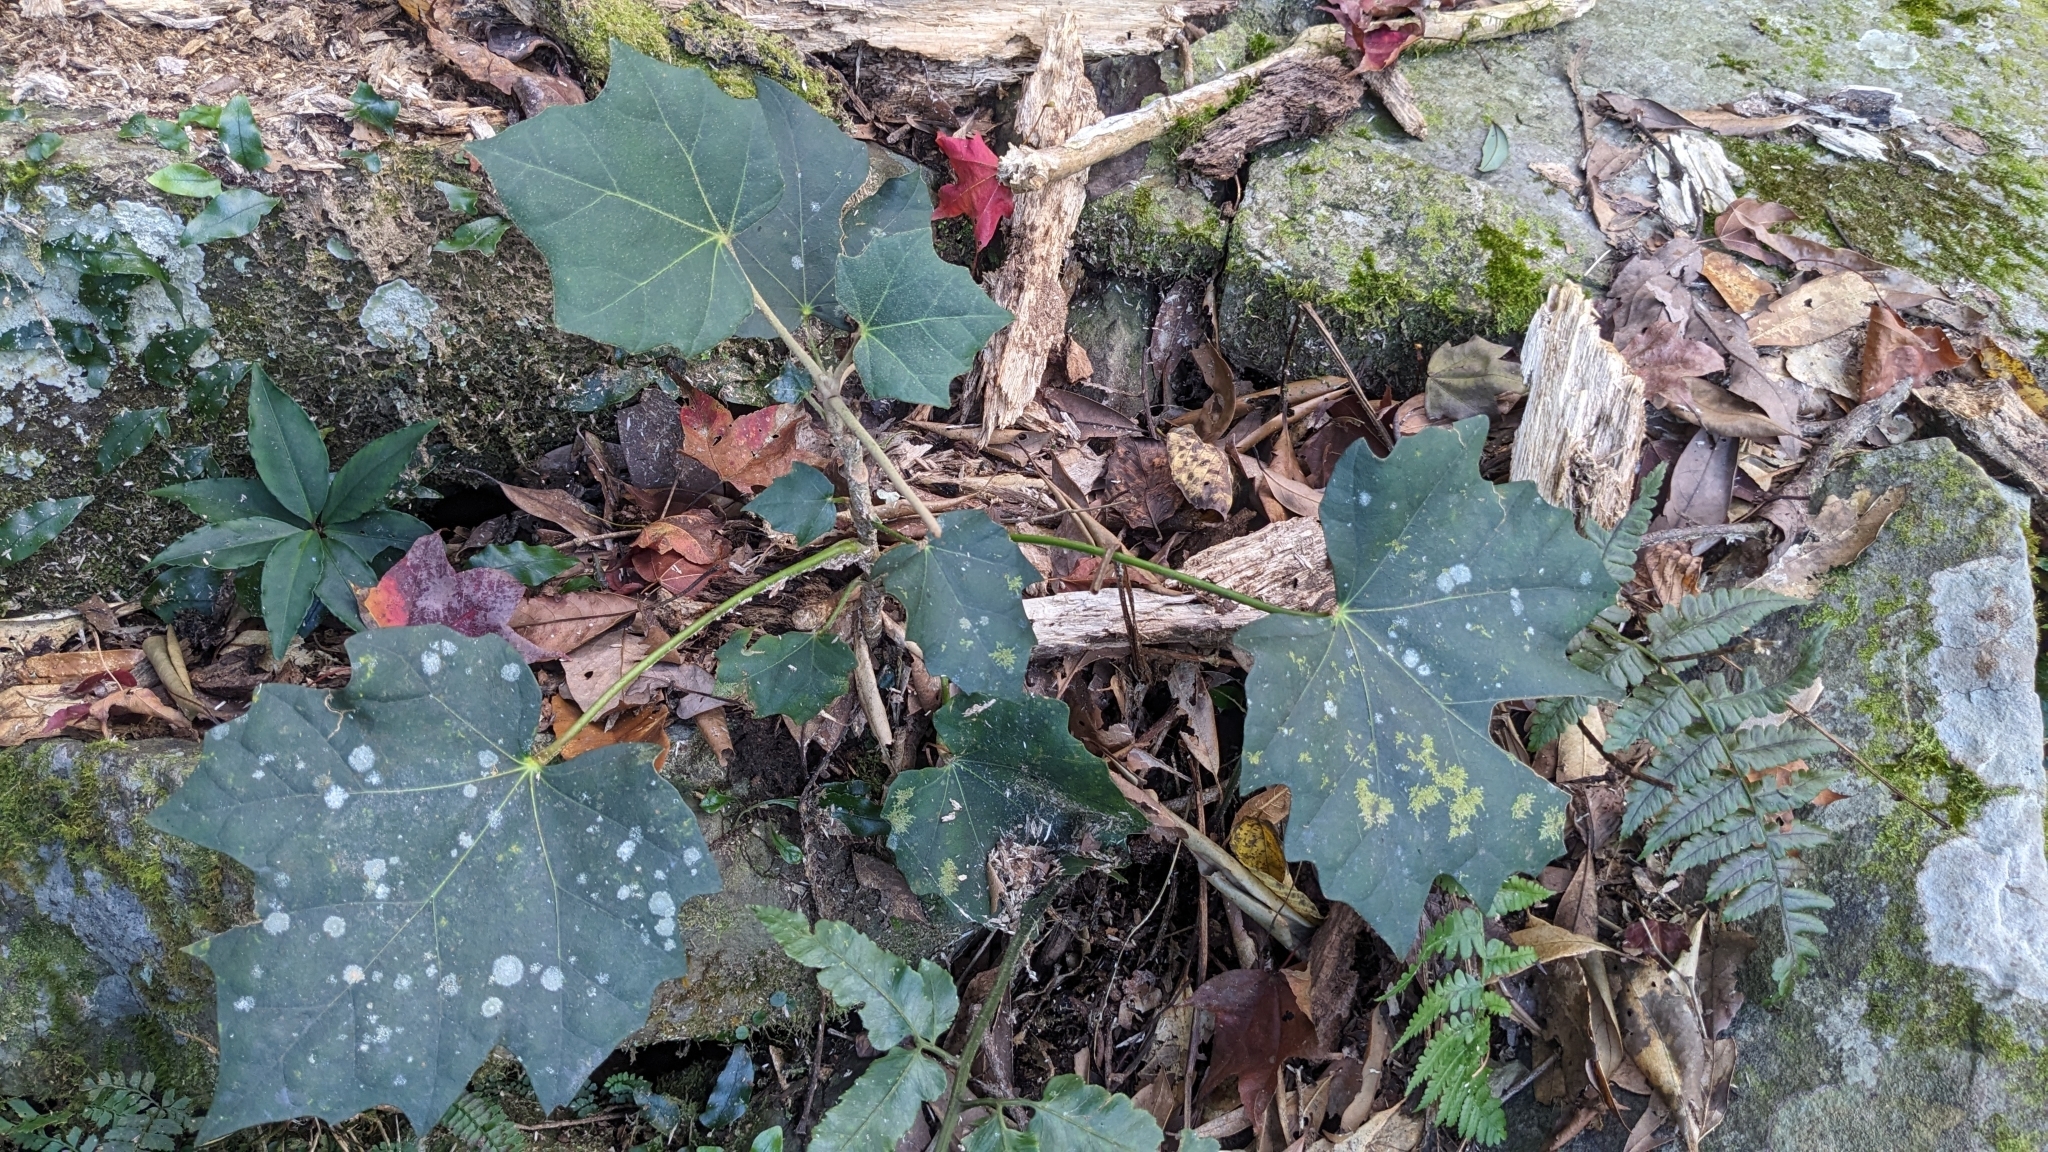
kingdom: Plantae
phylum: Tracheophyta
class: Magnoliopsida
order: Apiales
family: Araliaceae
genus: Sinopanax
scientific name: Sinopanax formosanus
